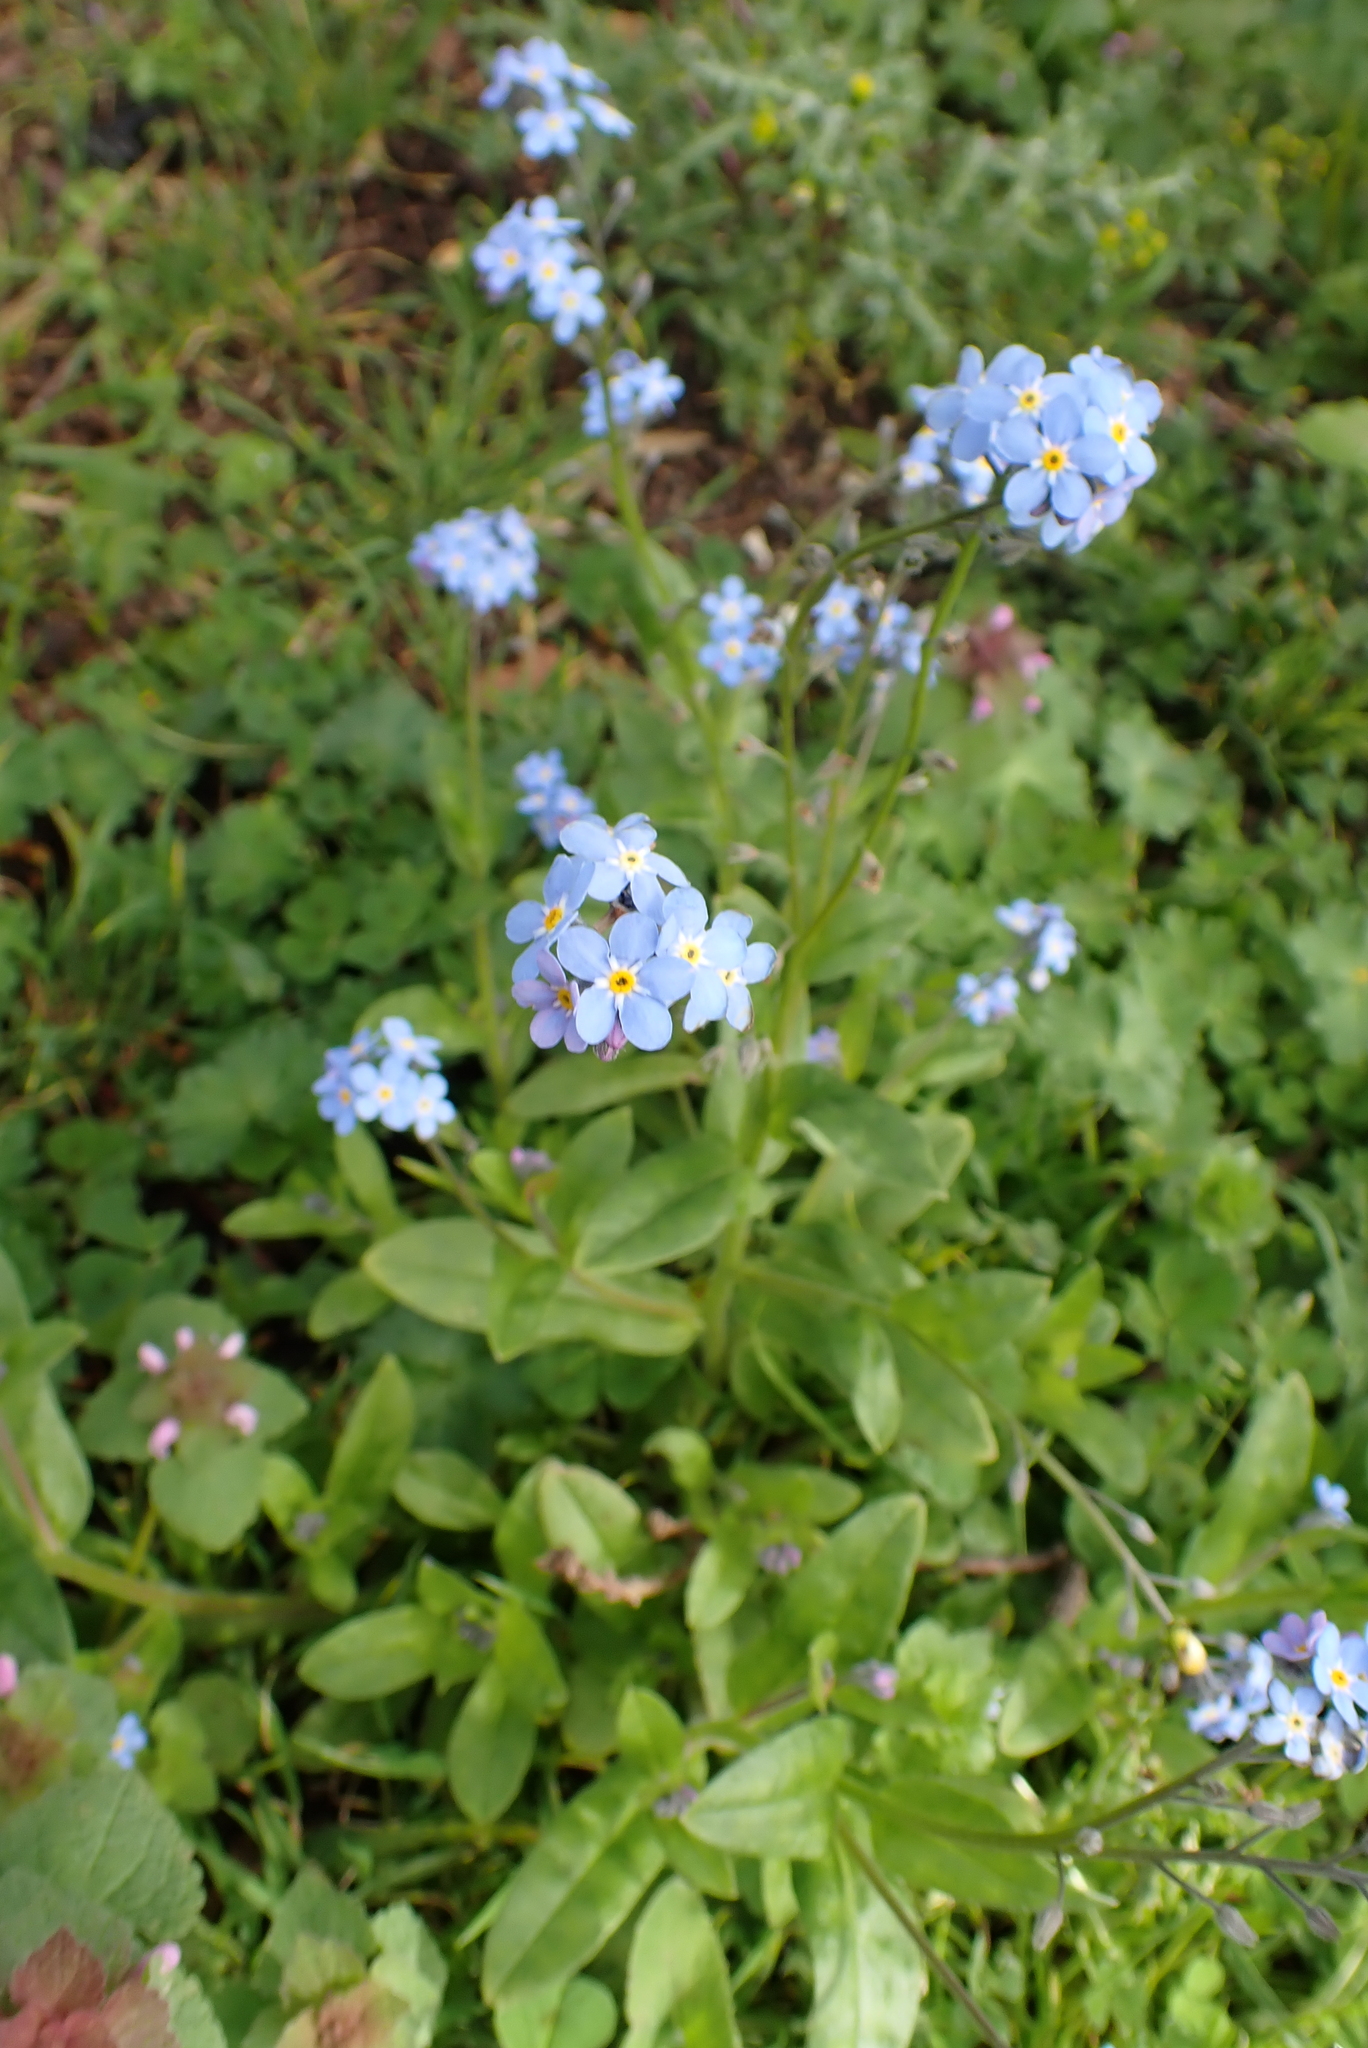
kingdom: Plantae
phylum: Tracheophyta
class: Magnoliopsida
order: Boraginales
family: Boraginaceae
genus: Myosotis
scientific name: Myosotis sylvatica
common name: Wood forget-me-not
